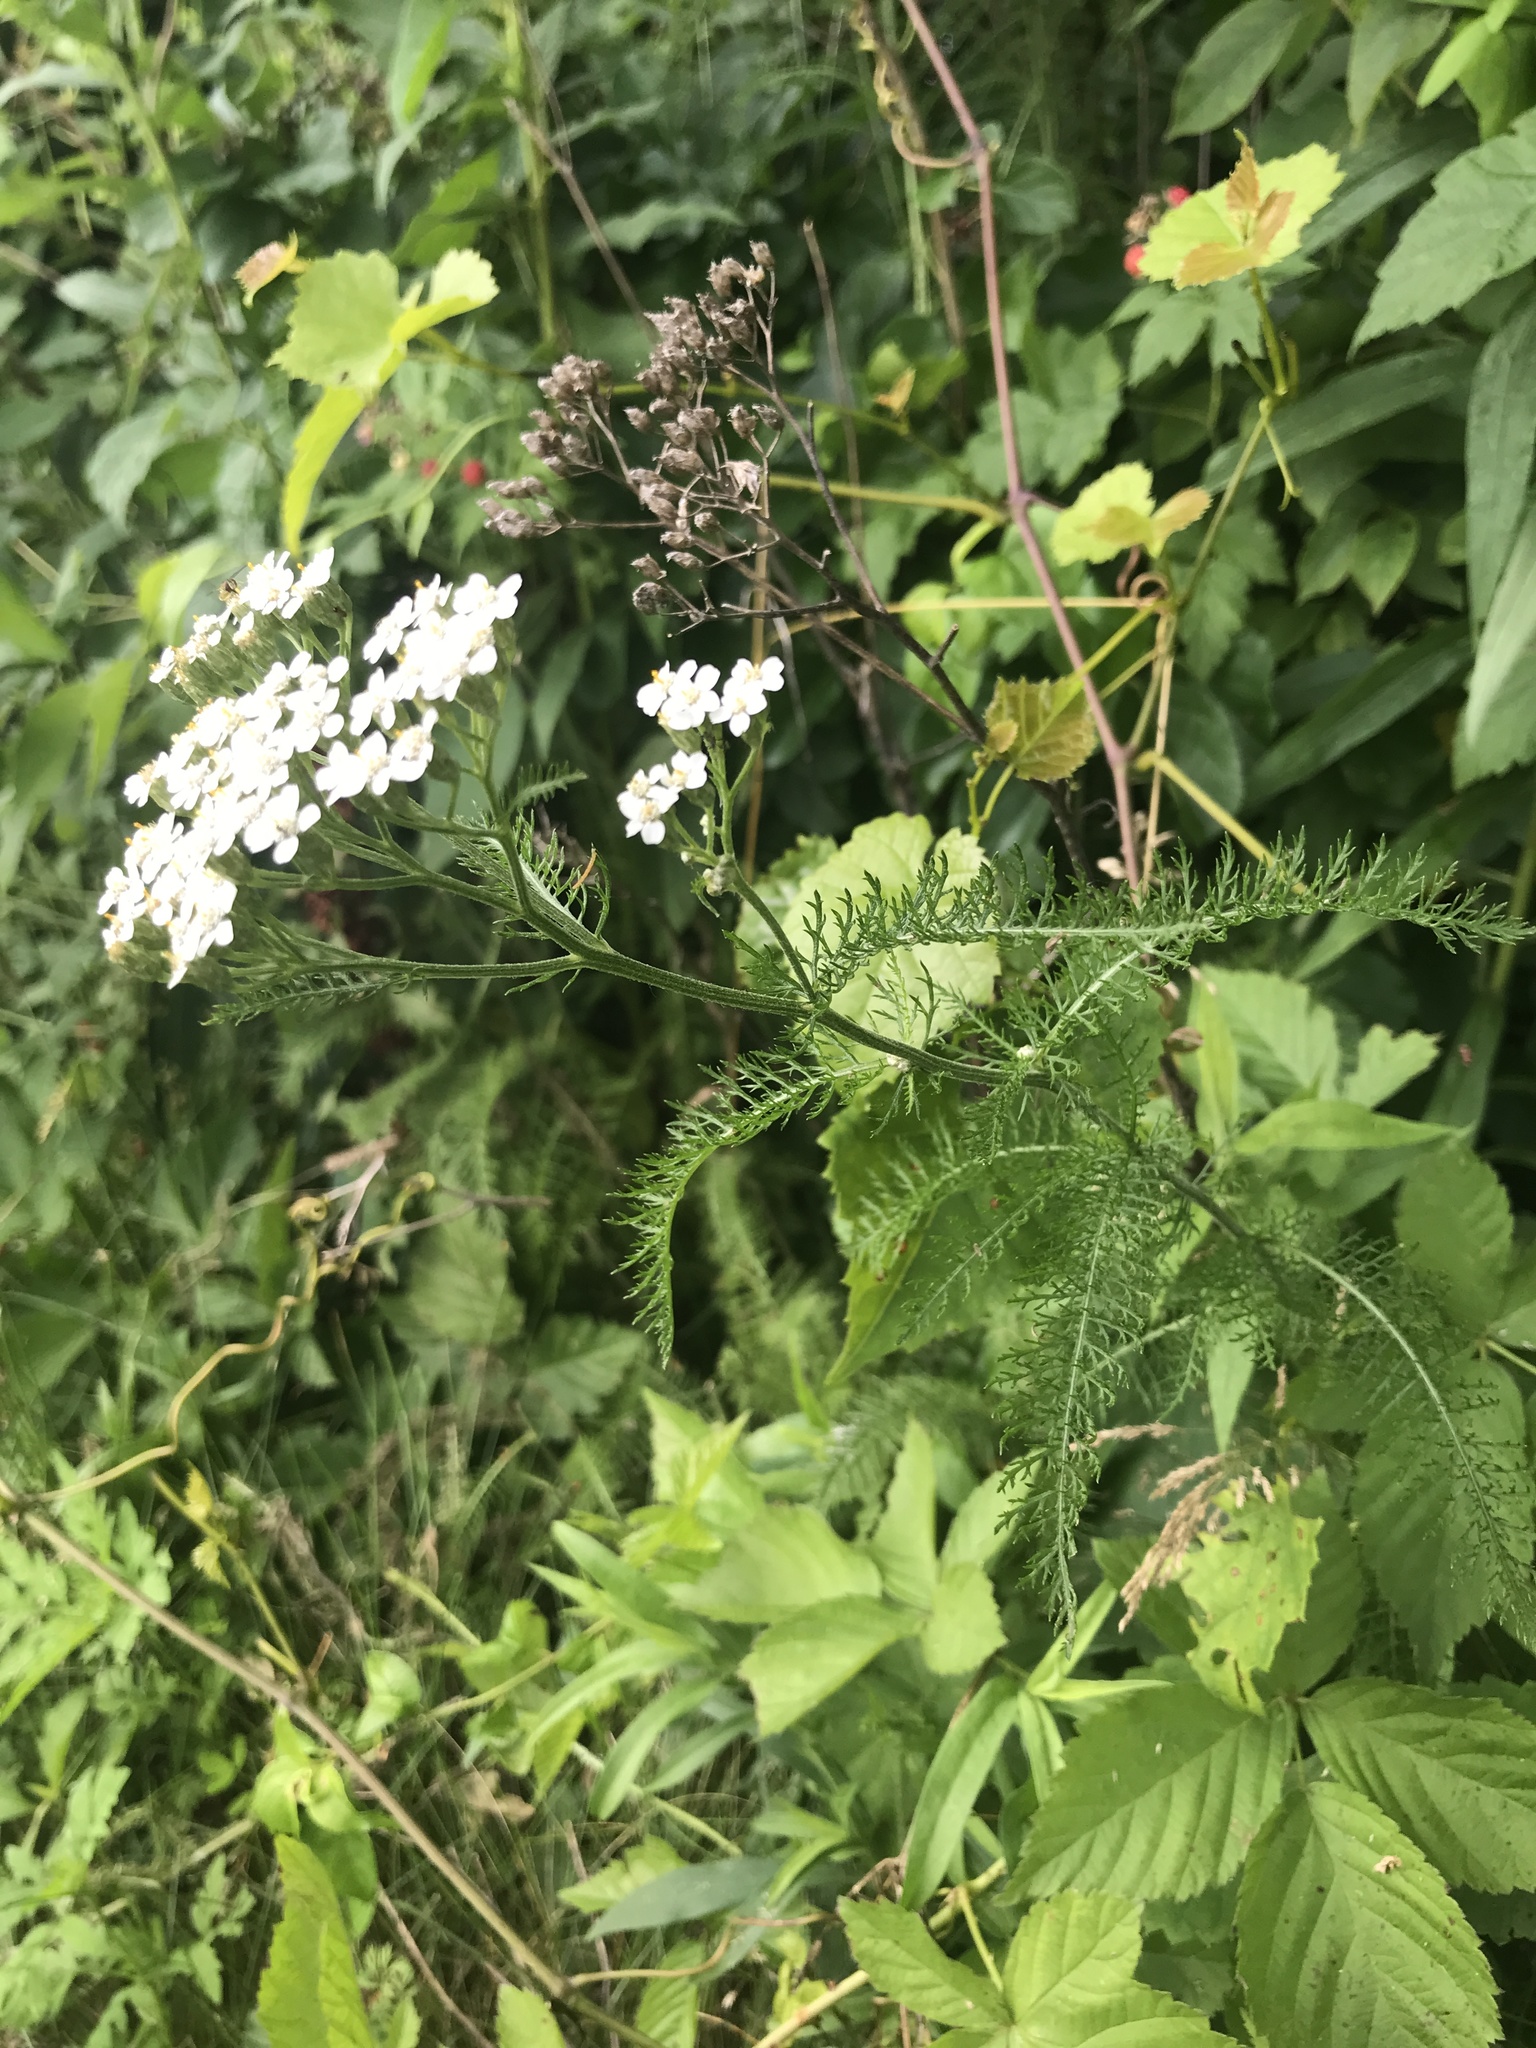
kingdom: Plantae
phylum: Tracheophyta
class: Magnoliopsida
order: Asterales
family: Asteraceae
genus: Achillea
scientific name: Achillea millefolium
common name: Yarrow
